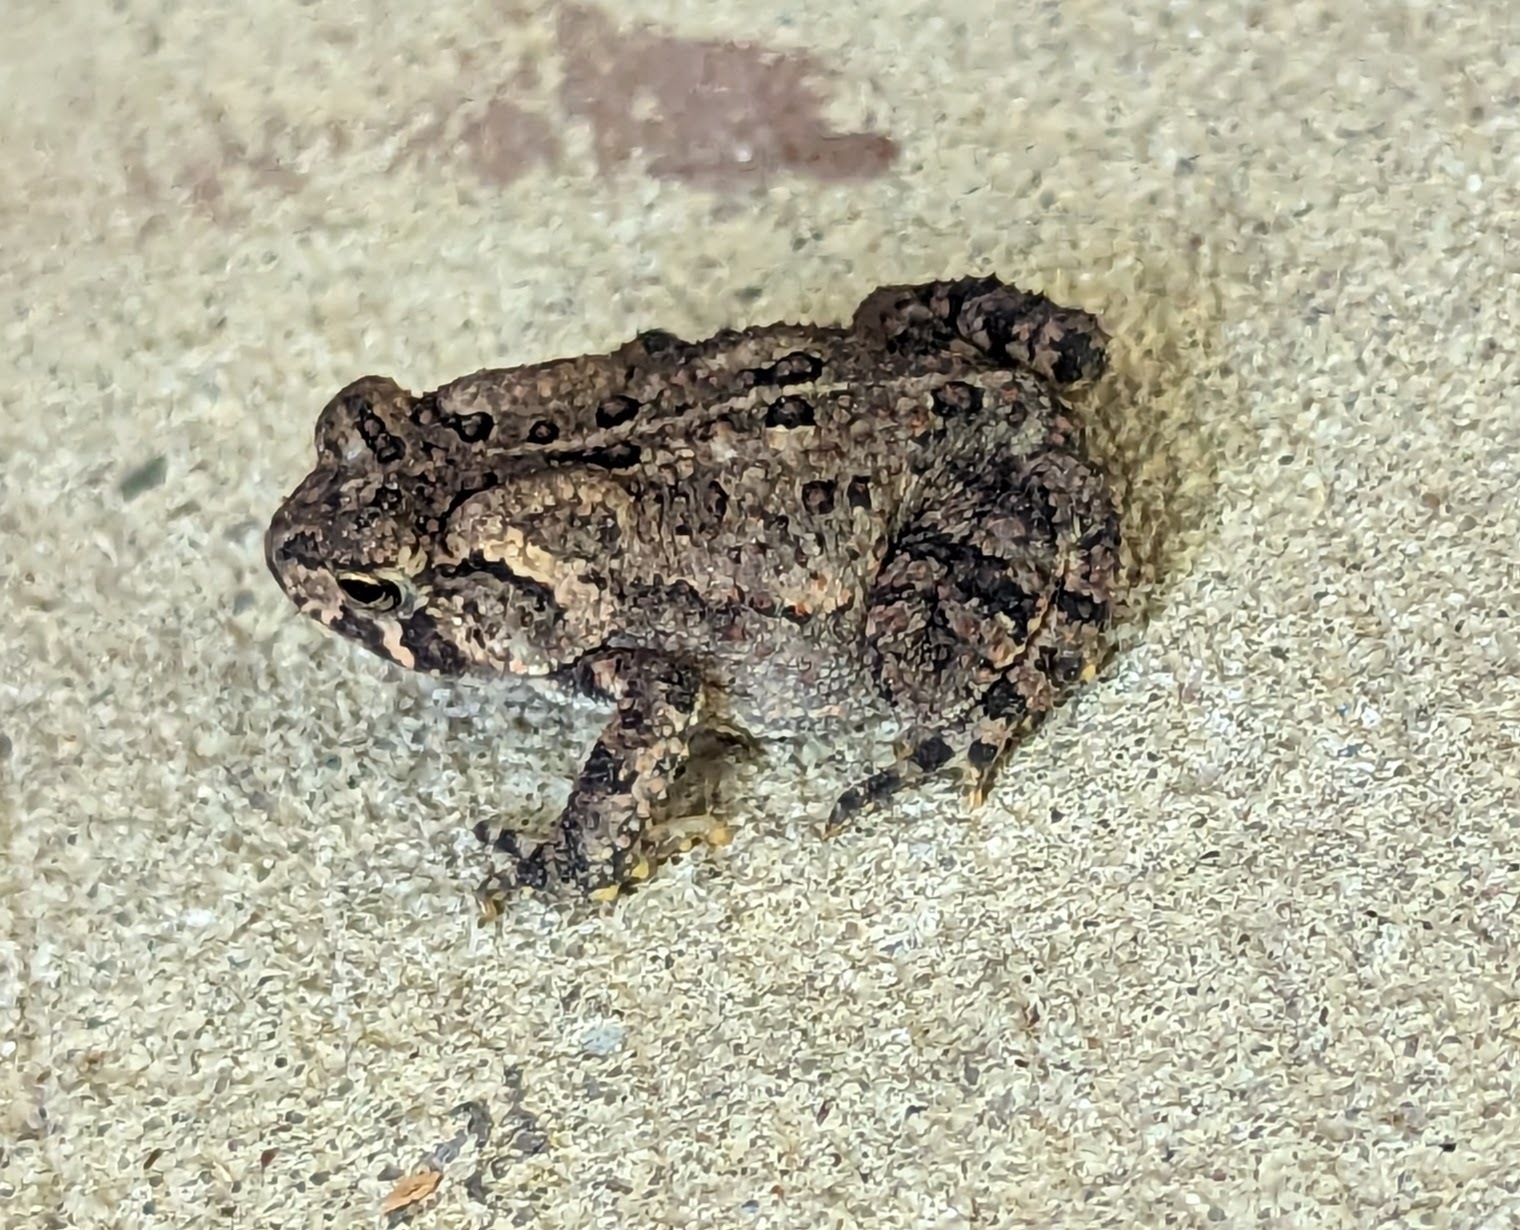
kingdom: Animalia
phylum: Chordata
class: Amphibia
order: Anura
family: Bufonidae
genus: Anaxyrus
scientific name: Anaxyrus americanus
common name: American toad
